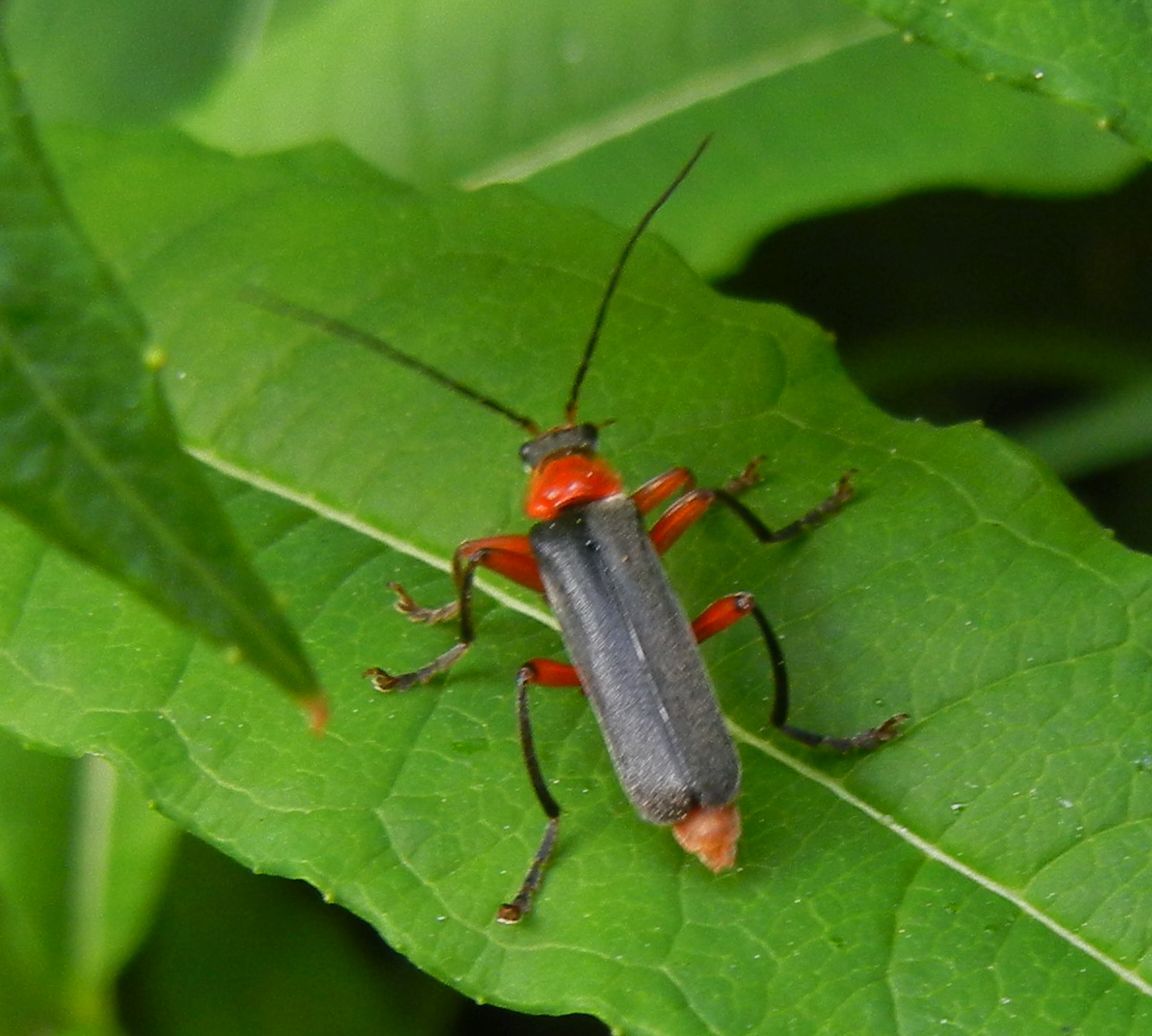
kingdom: Animalia
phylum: Arthropoda
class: Insecta
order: Coleoptera
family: Cantharidae
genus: Cantharis
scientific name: Cantharis pellucida
